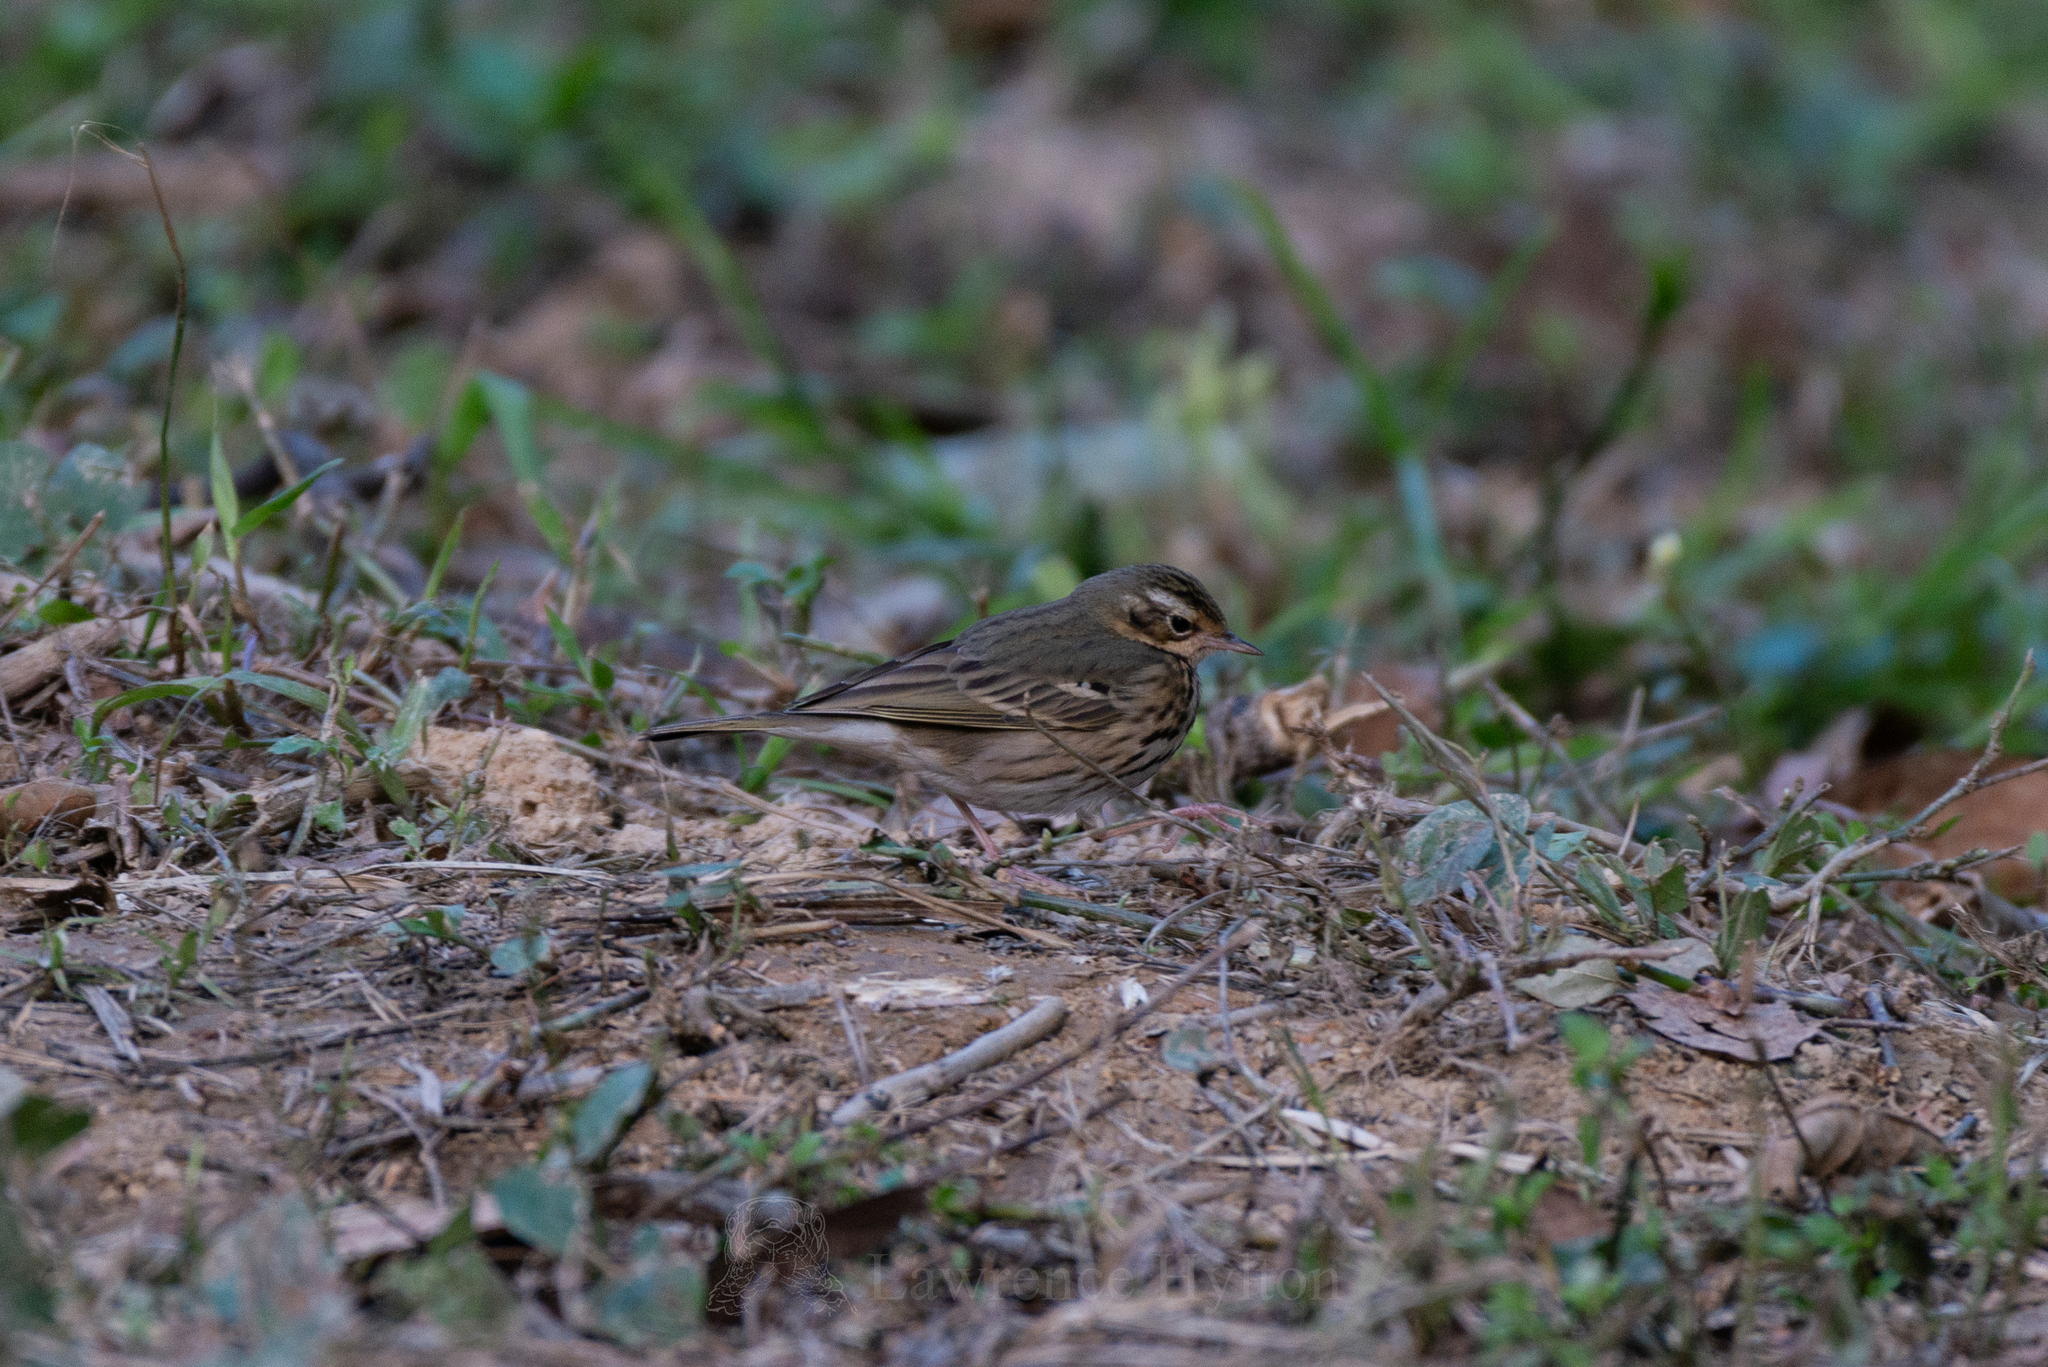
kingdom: Animalia
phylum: Chordata
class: Aves
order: Passeriformes
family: Motacillidae
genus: Anthus
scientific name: Anthus hodgsoni
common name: Olive-backed pipit
